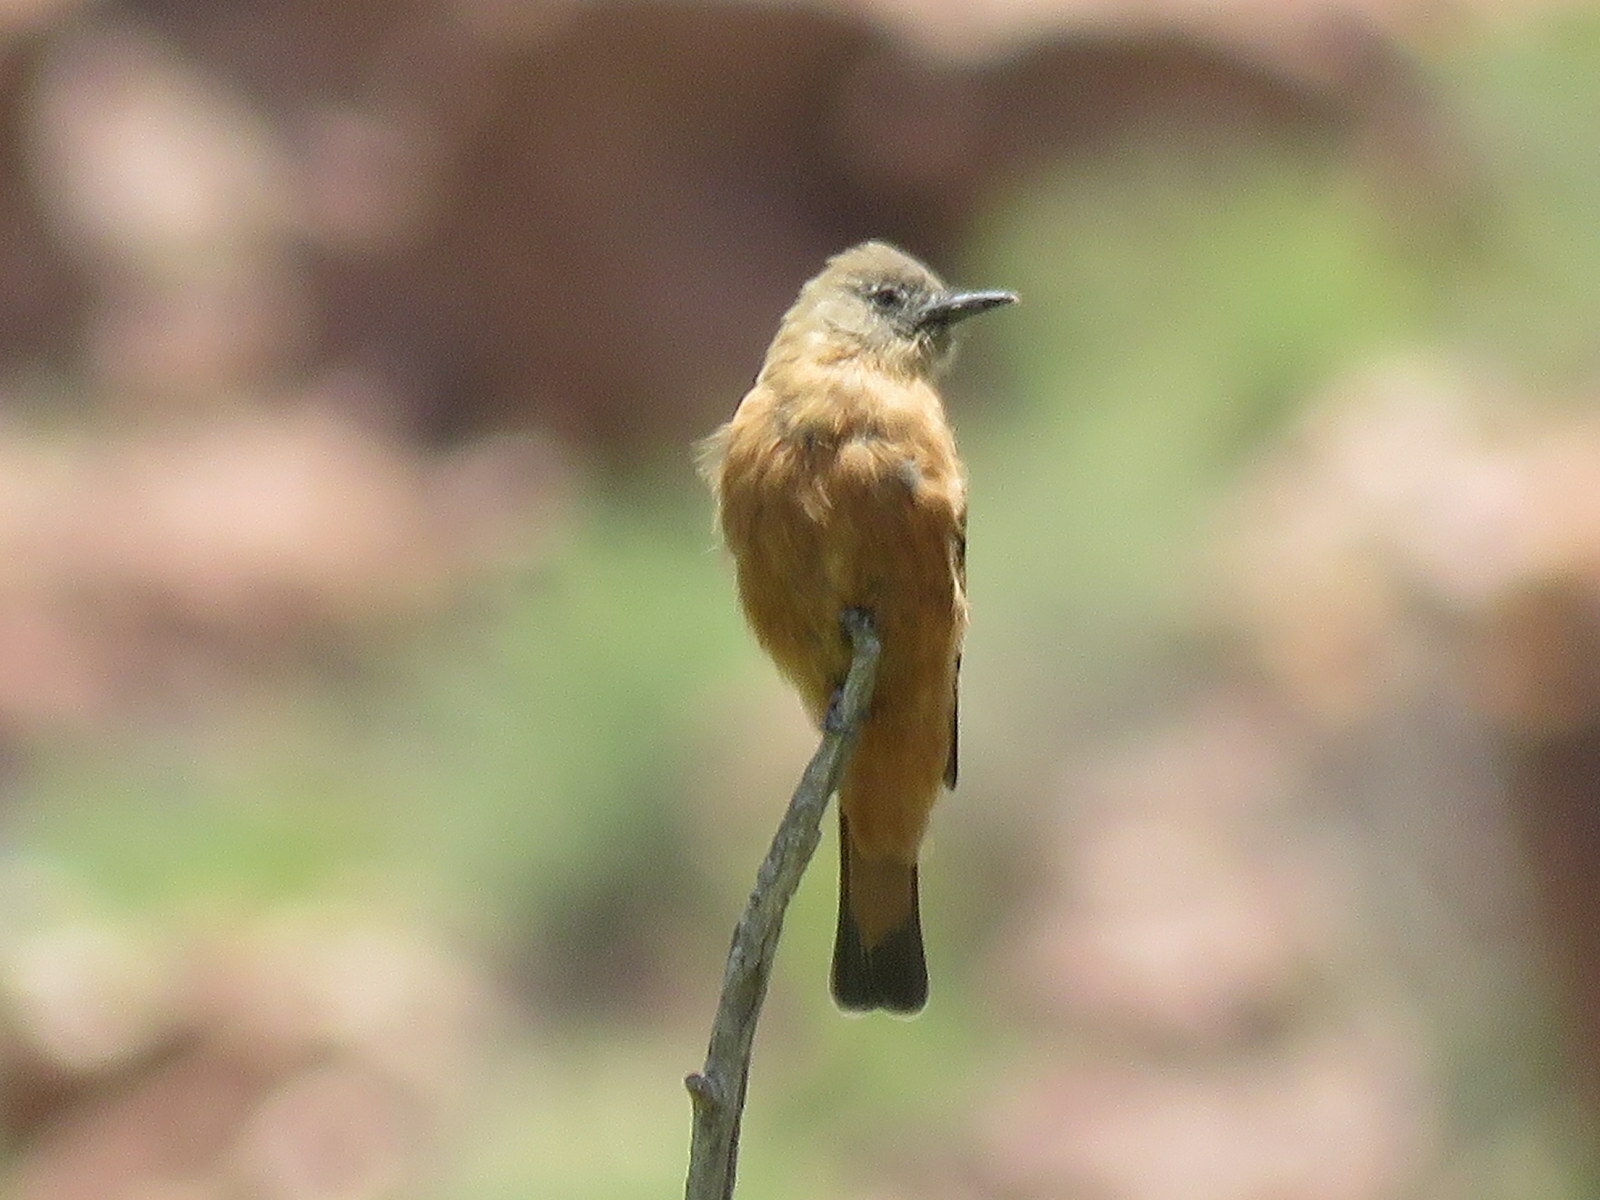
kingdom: Animalia
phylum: Chordata
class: Aves
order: Passeriformes
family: Tyrannidae
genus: Hirundinea
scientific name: Hirundinea ferruginea
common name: Cliff flycatcher
